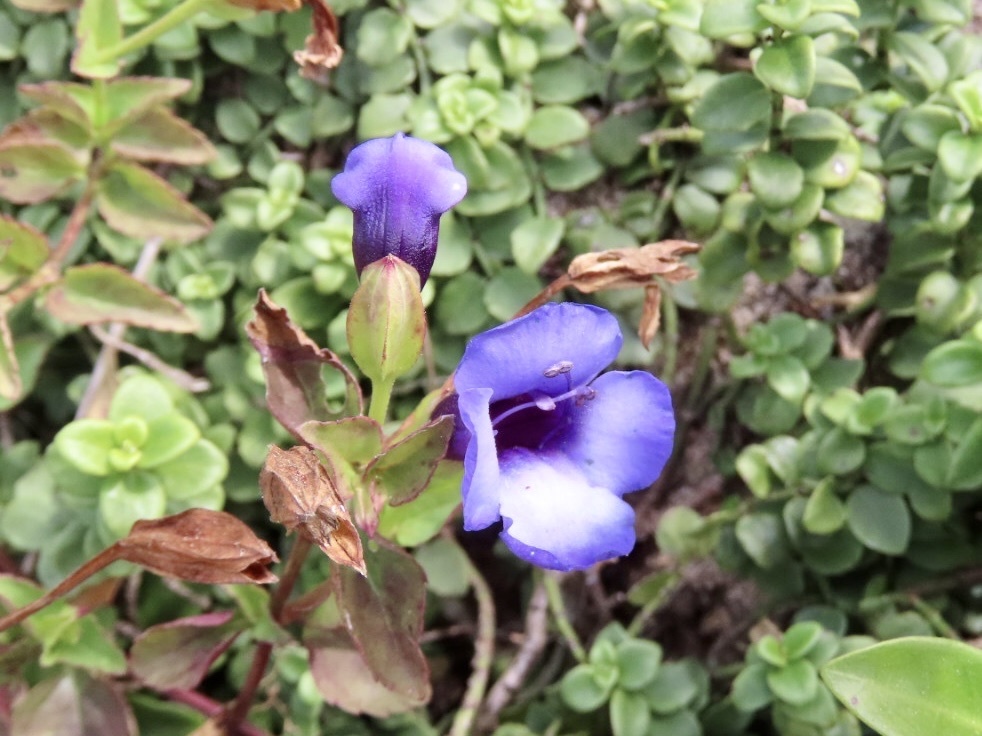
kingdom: Plantae
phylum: Tracheophyta
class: Magnoliopsida
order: Lamiales
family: Linderniaceae
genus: Torenia
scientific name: Torenia concolor
